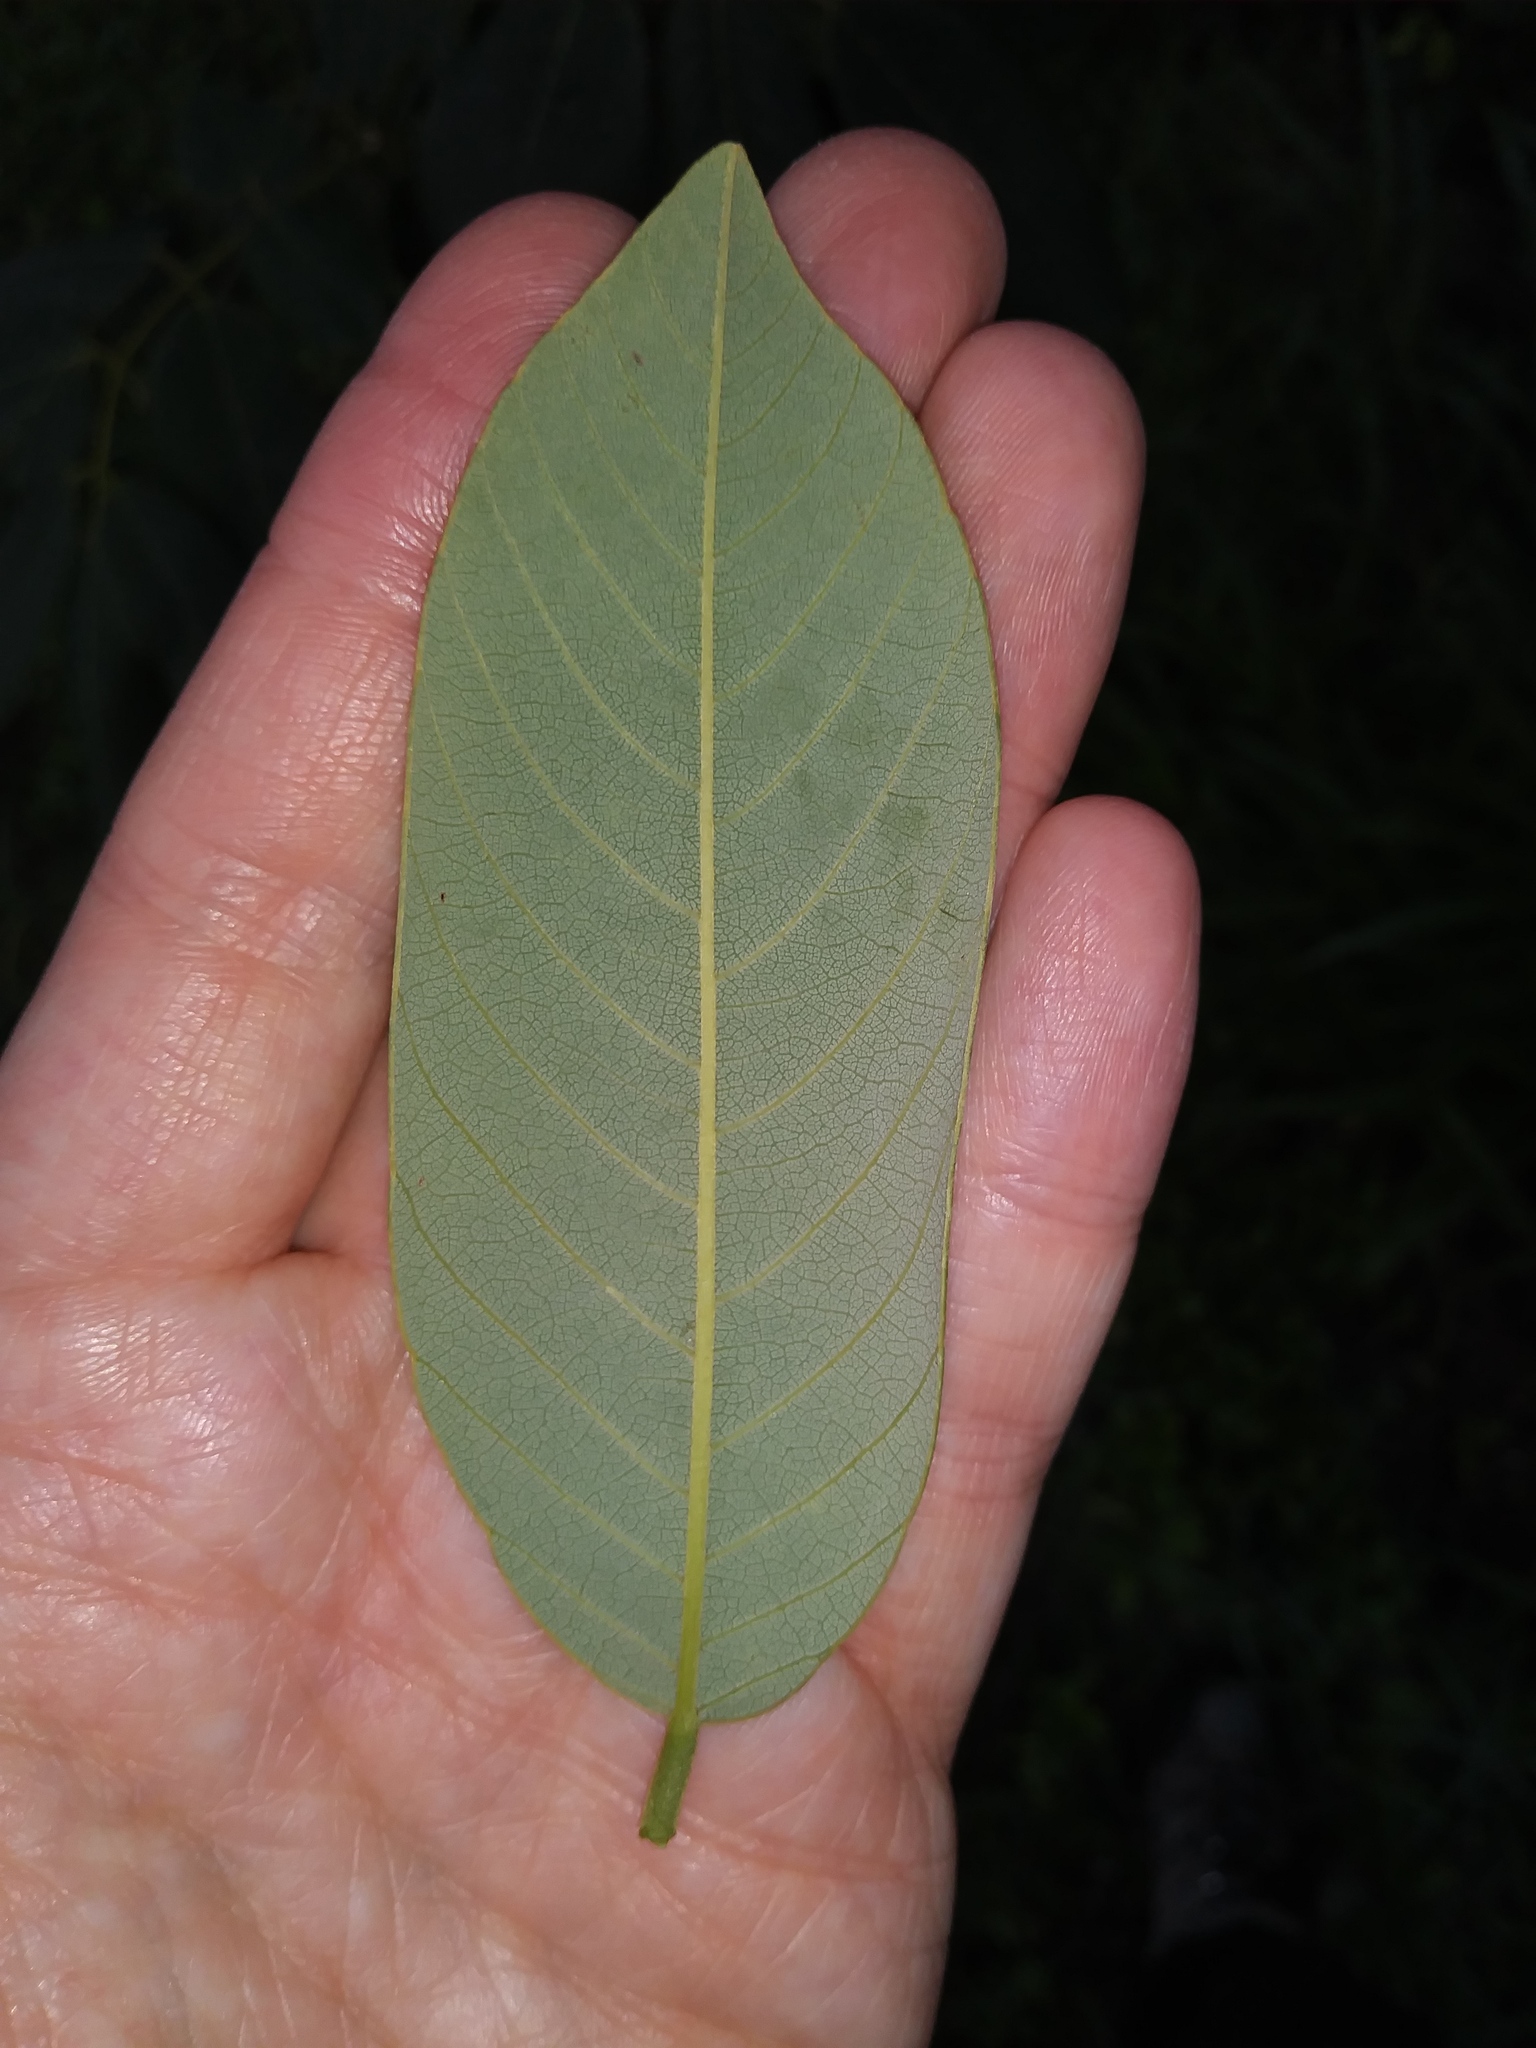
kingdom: Plantae
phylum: Tracheophyta
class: Magnoliopsida
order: Fabales
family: Fabaceae
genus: Piscidia
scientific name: Piscidia piscipula
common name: Florida fishpoison tree
